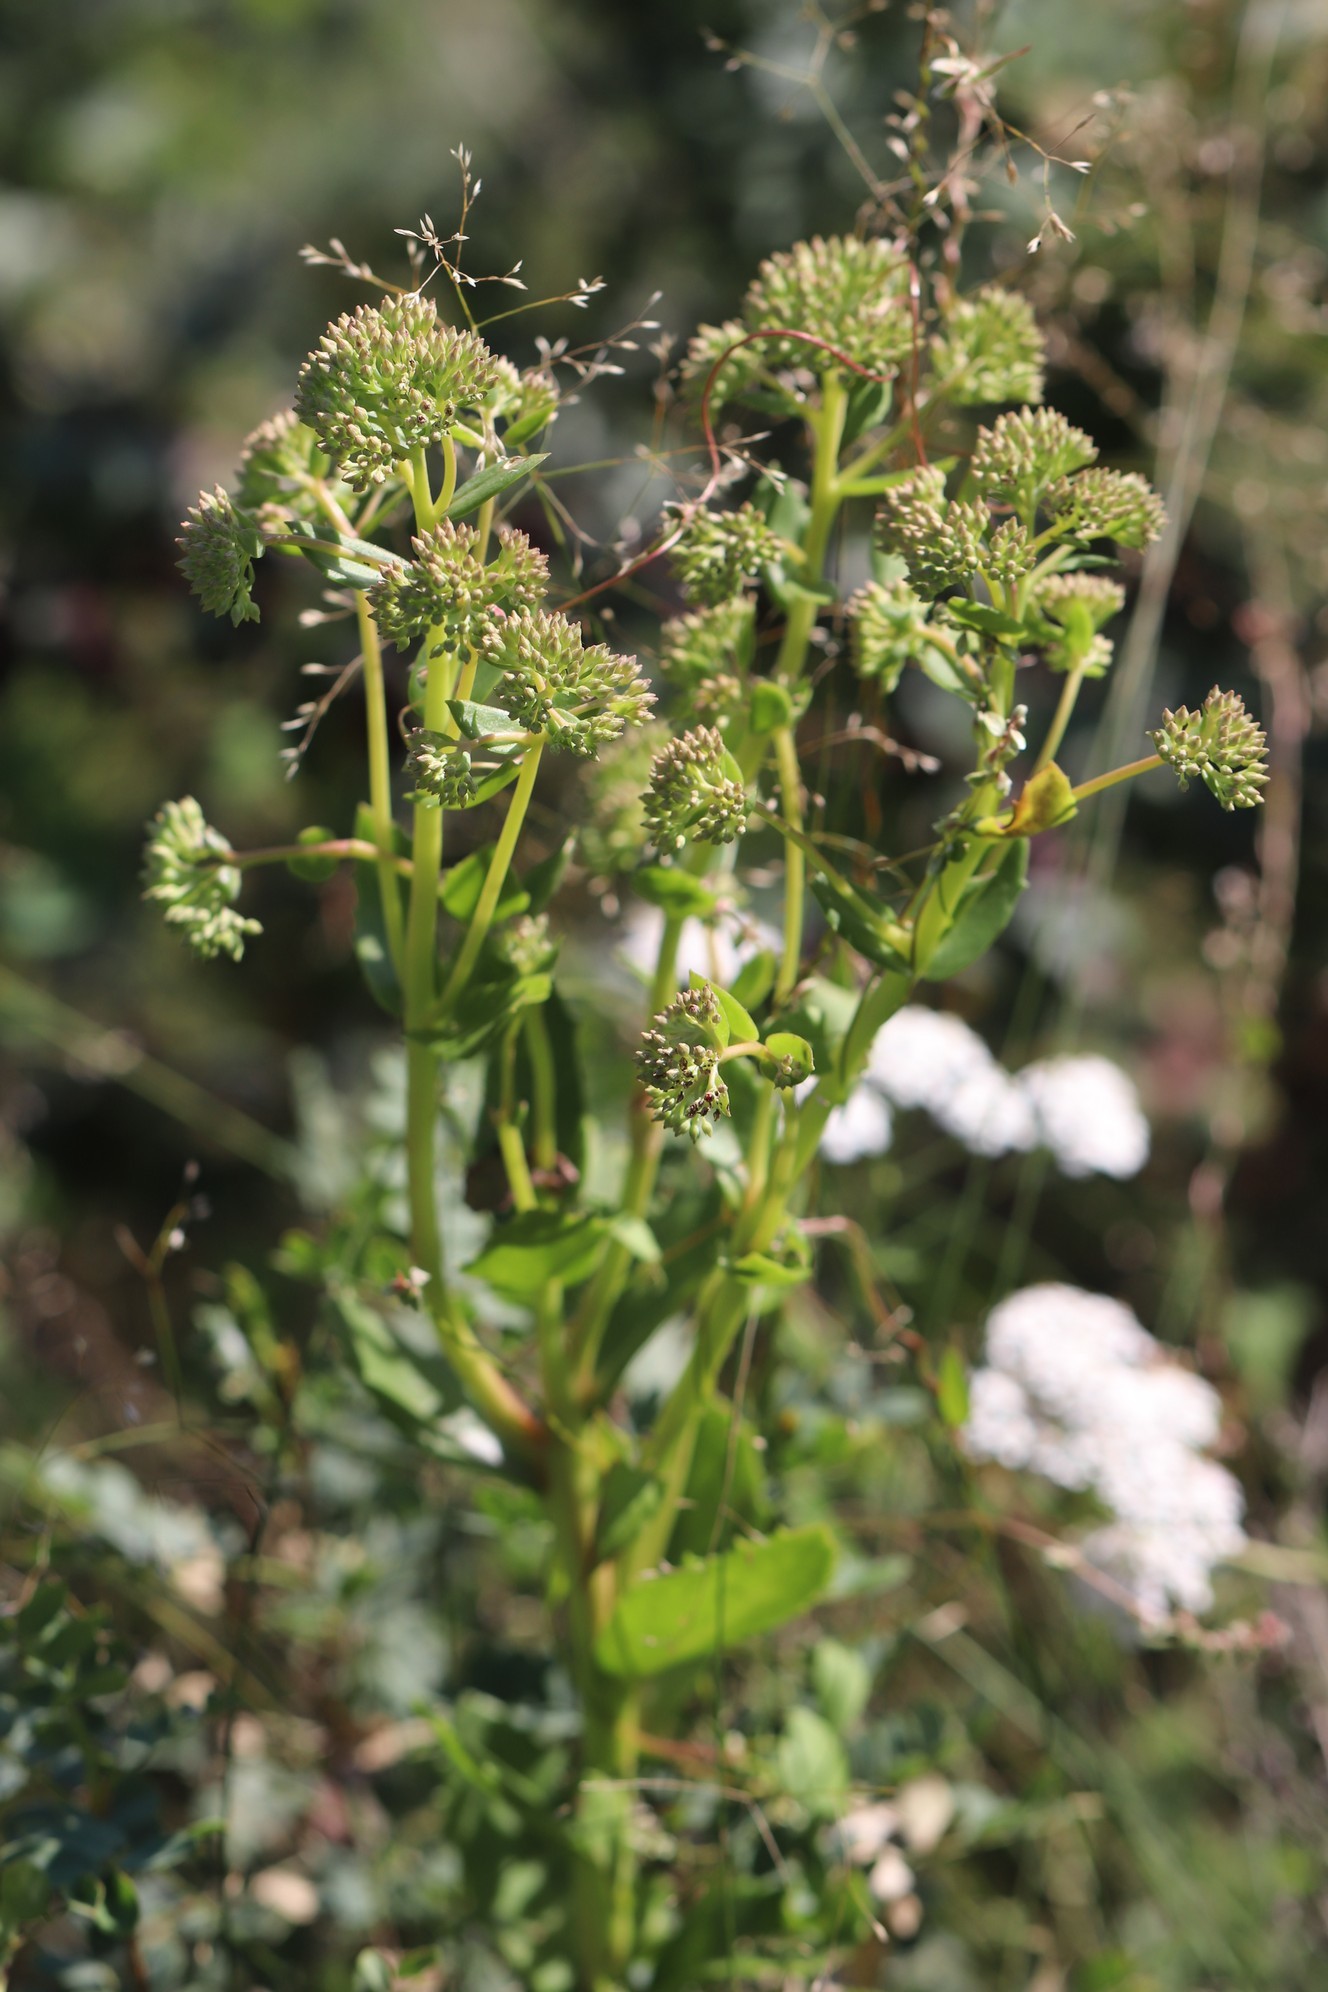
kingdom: Plantae
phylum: Tracheophyta
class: Magnoliopsida
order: Saxifragales
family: Crassulaceae
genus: Hylotelephium
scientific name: Hylotelephium telephium
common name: Live-forever
